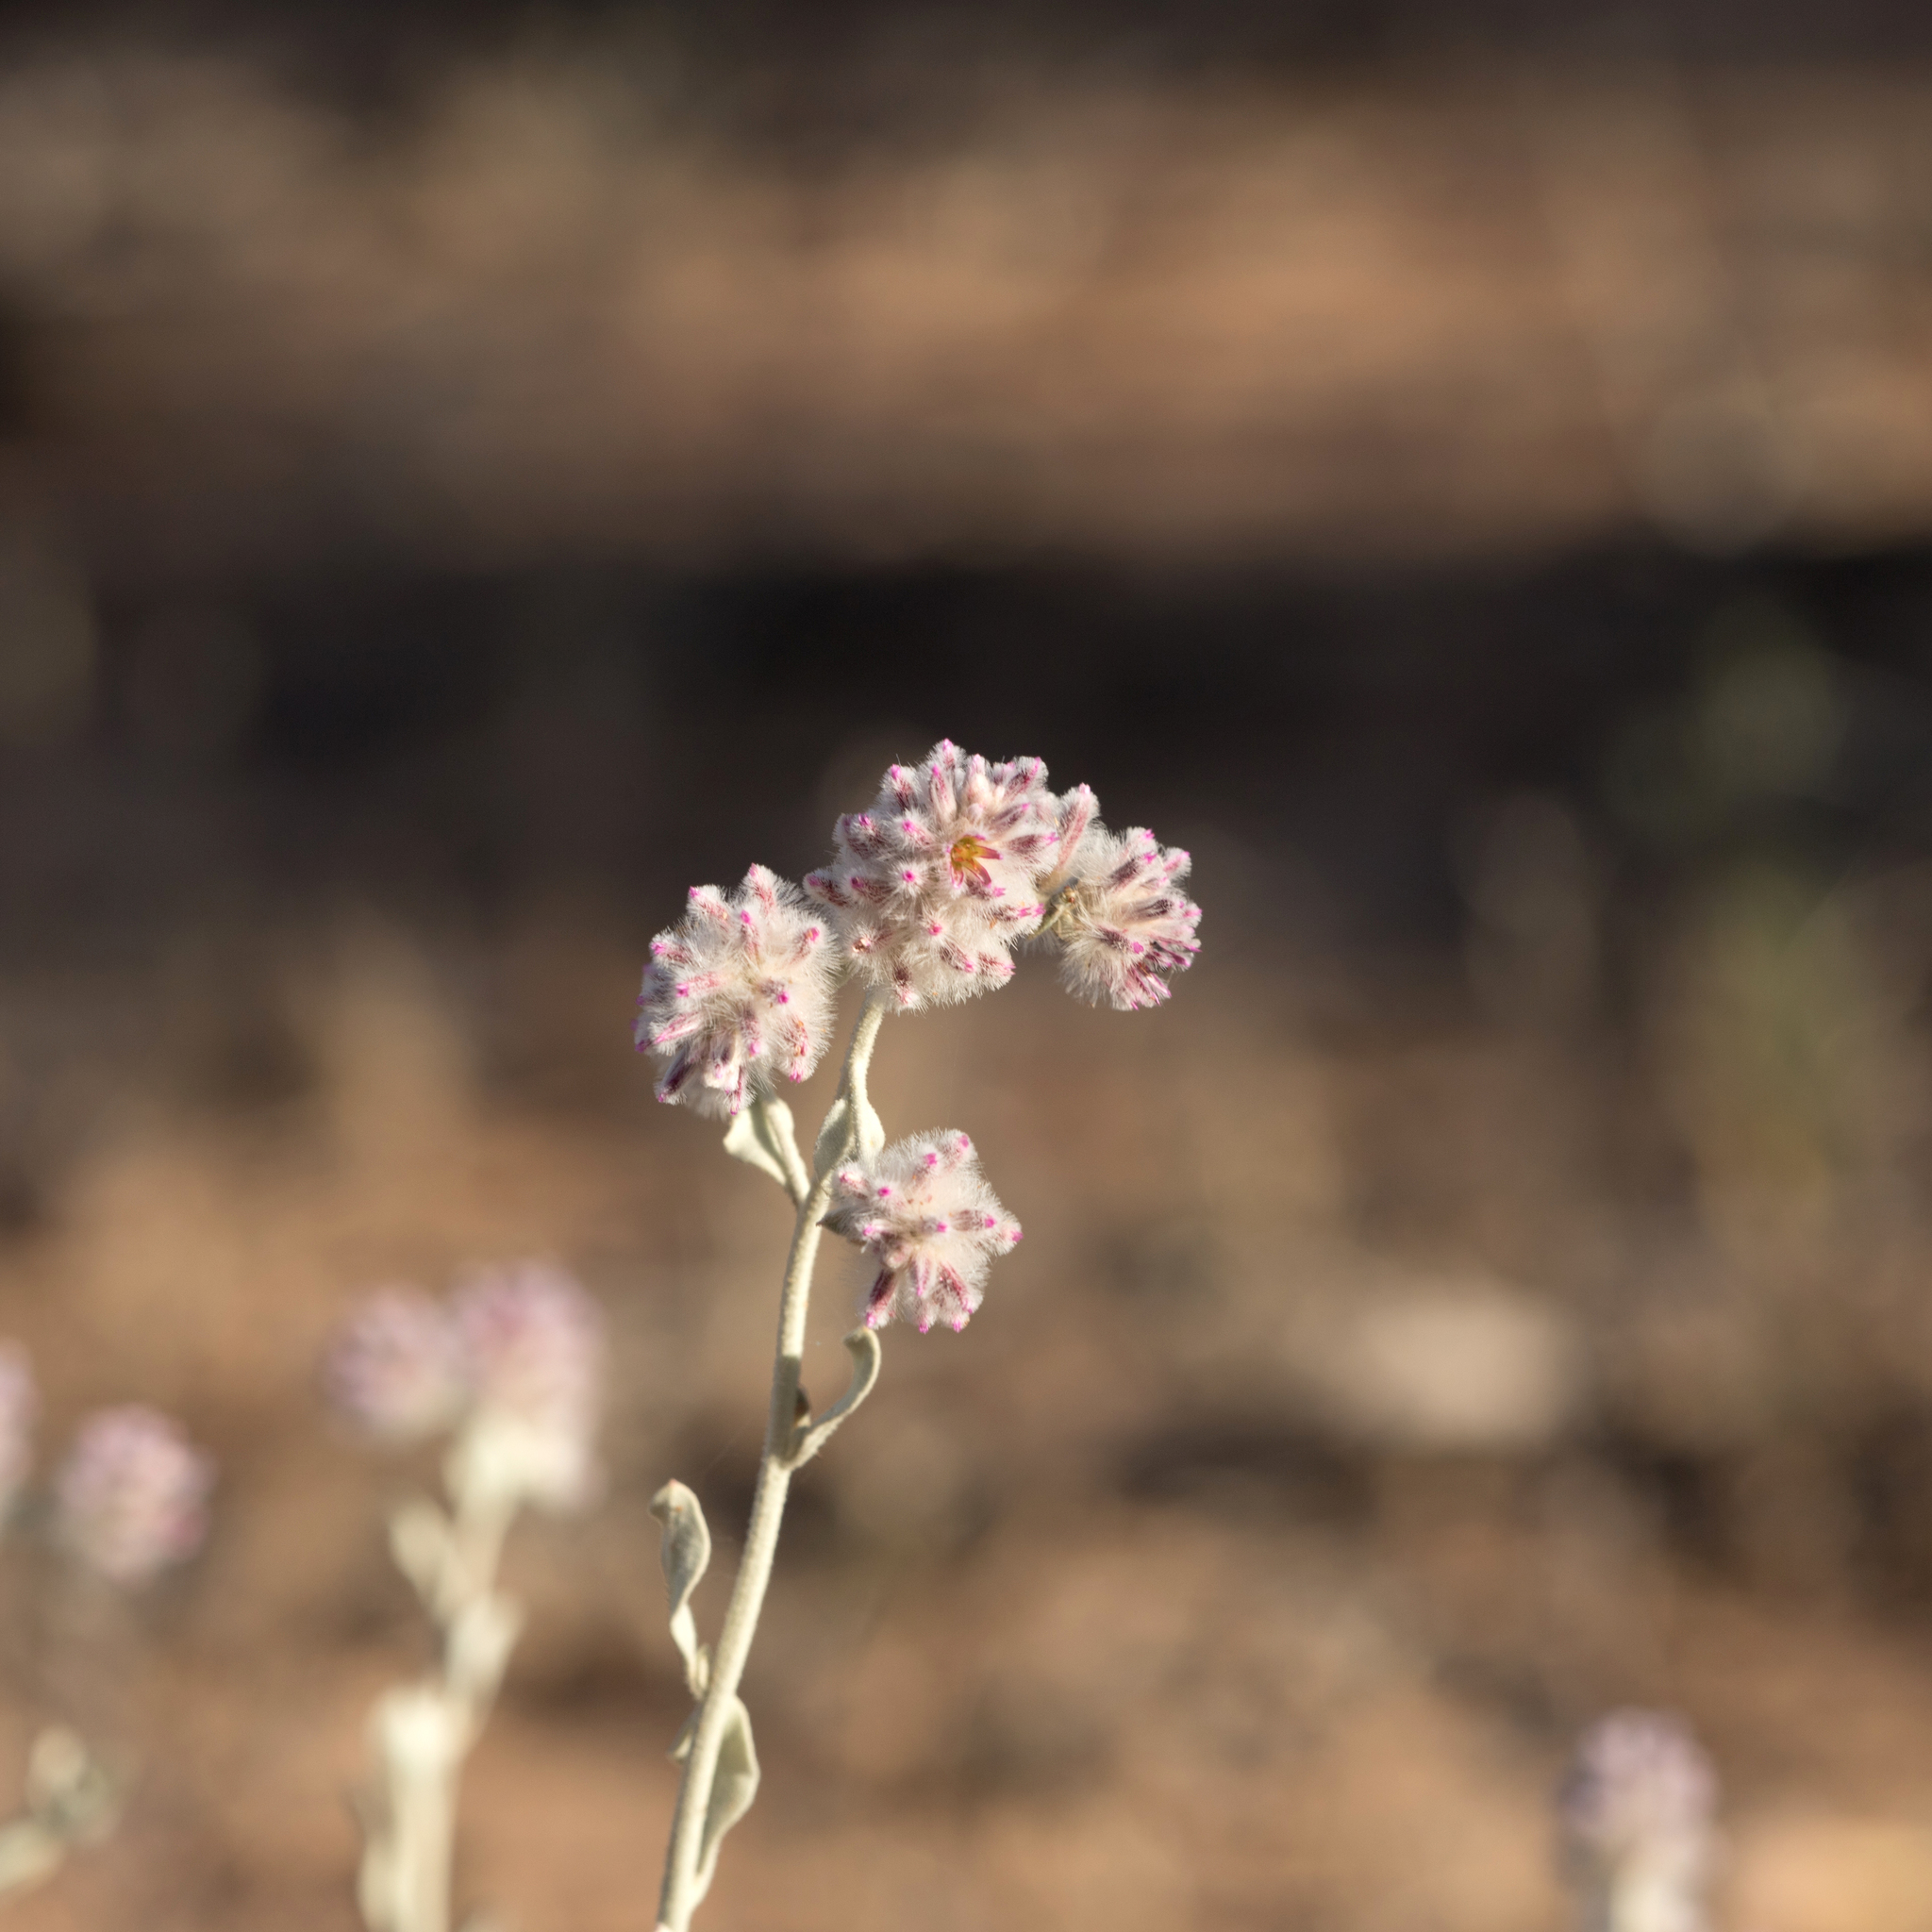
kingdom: Plantae
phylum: Tracheophyta
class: Magnoliopsida
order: Caryophyllales
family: Amaranthaceae
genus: Ptilotus
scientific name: Ptilotus obovatus
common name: Cottonbush
